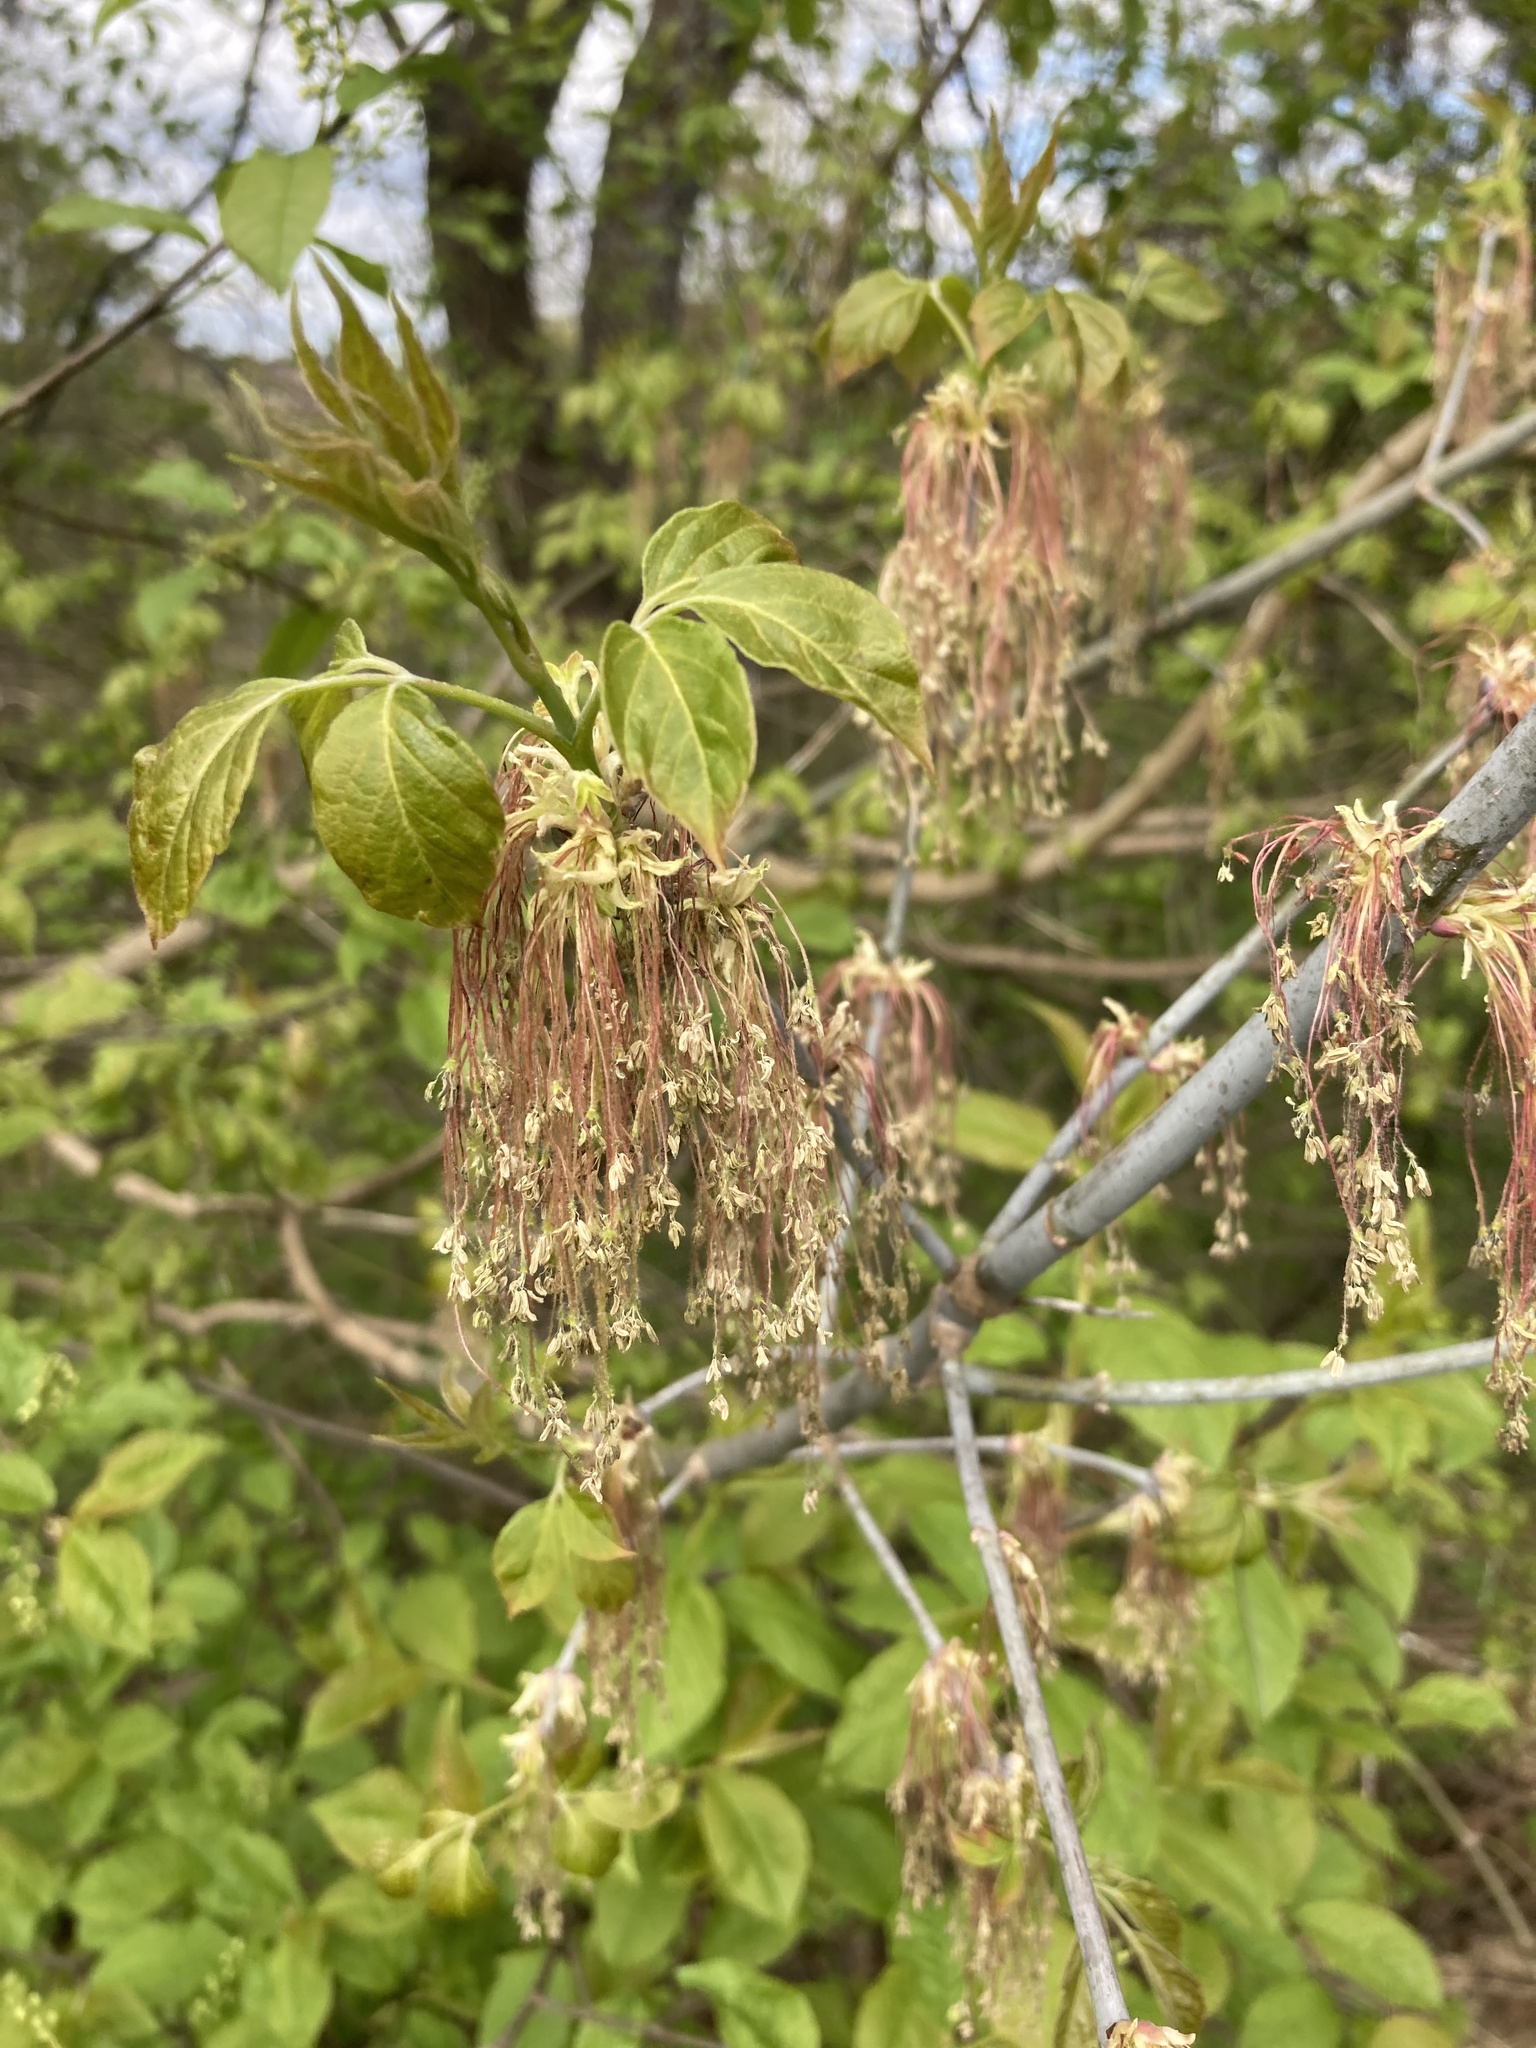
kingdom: Plantae
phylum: Tracheophyta
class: Magnoliopsida
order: Sapindales
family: Sapindaceae
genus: Acer
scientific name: Acer negundo
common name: Ashleaf maple
